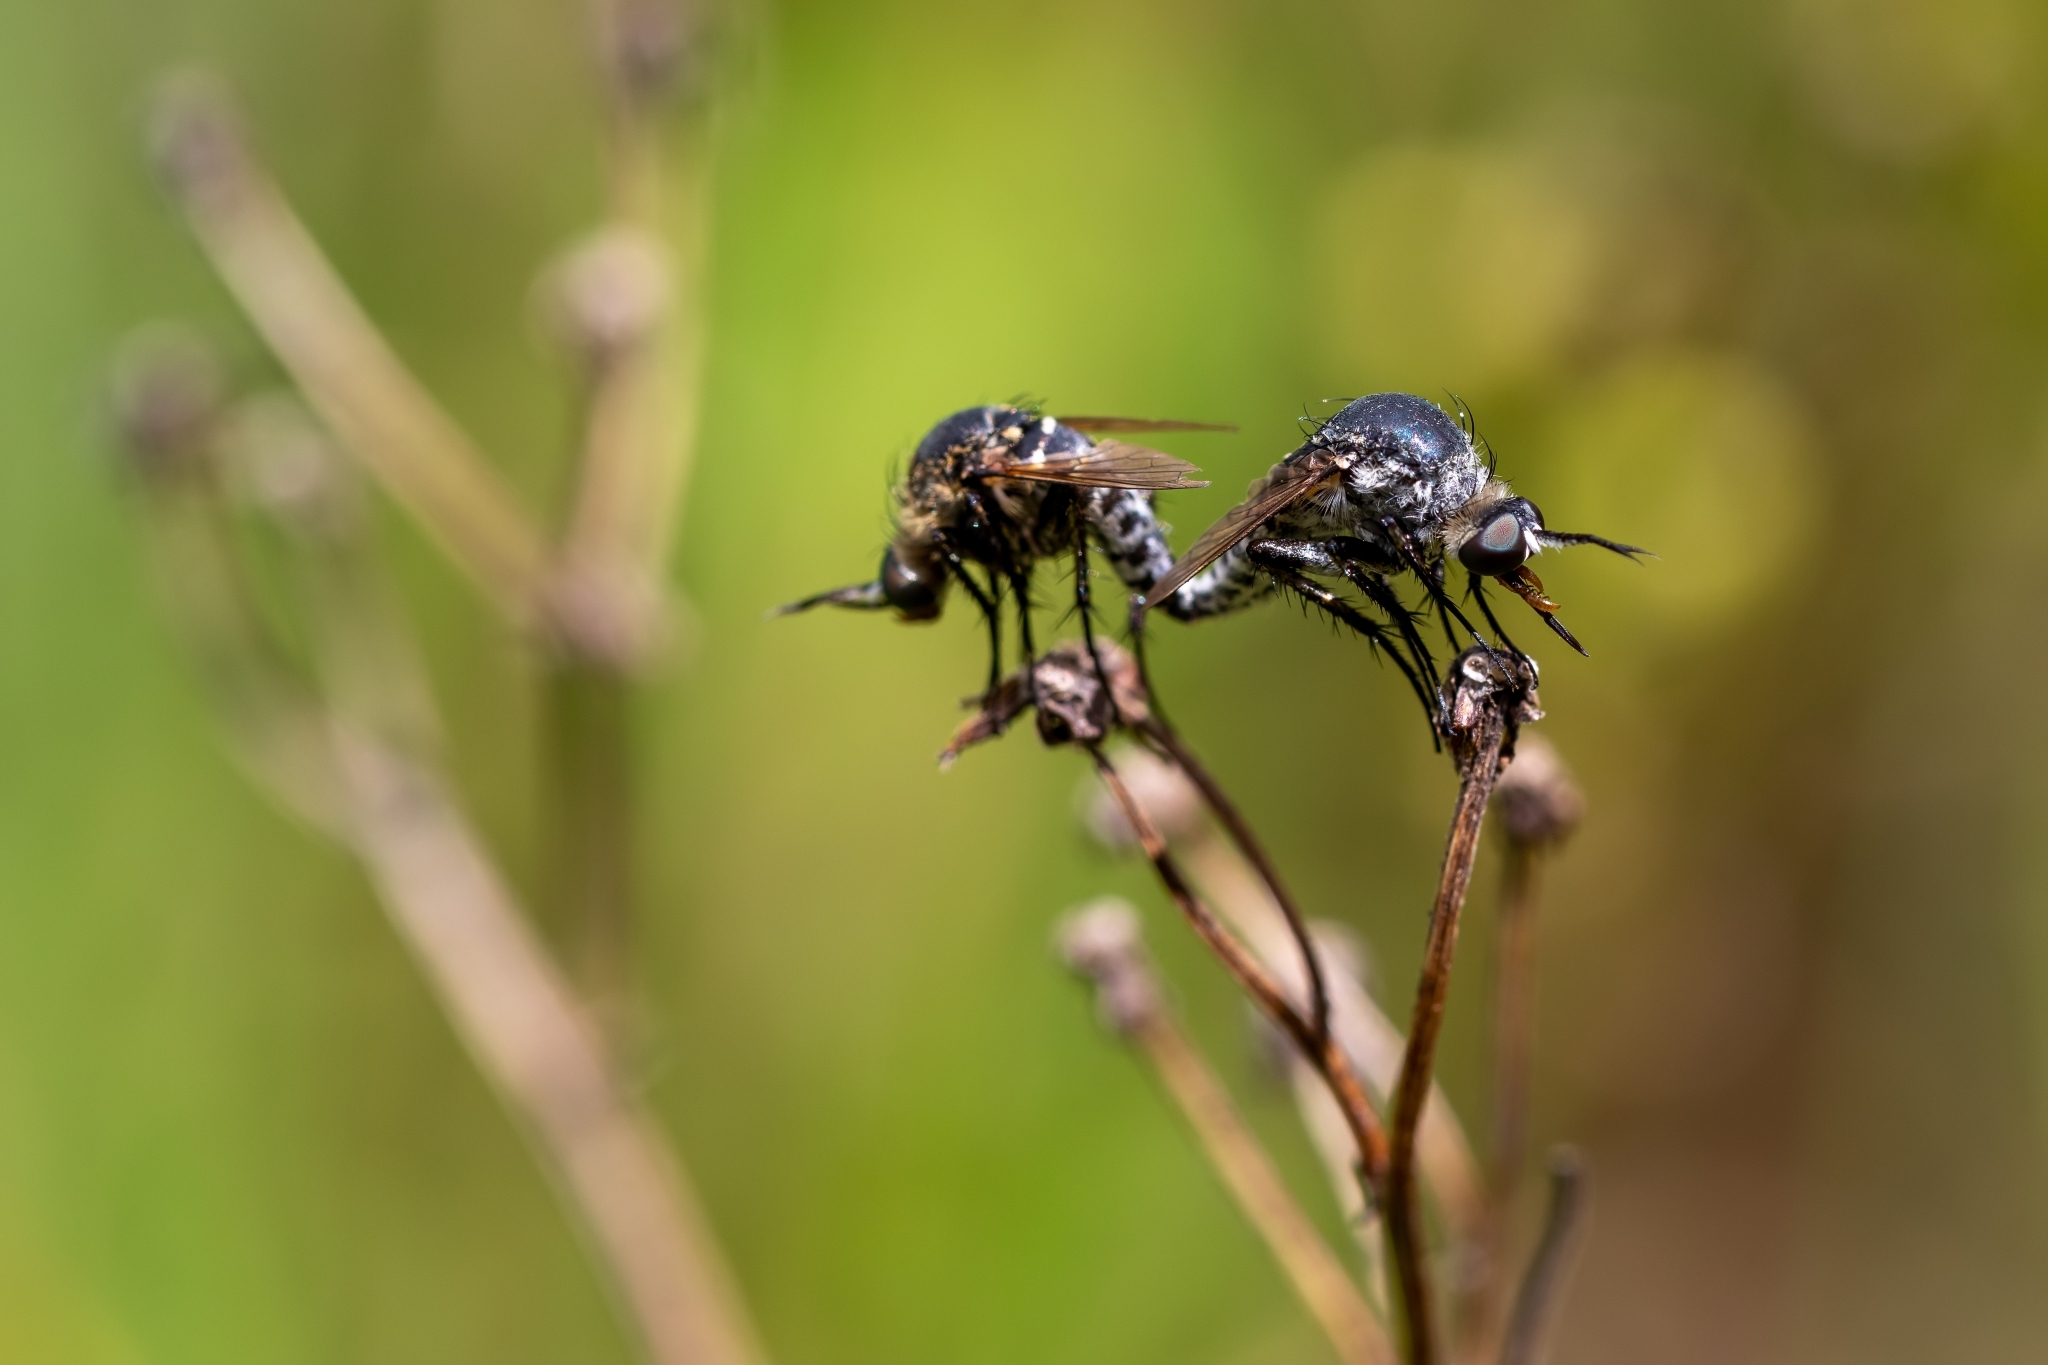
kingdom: Animalia
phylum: Arthropoda
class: Insecta
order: Diptera
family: Bombyliidae
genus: Toxophora
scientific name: Toxophora amphitea
